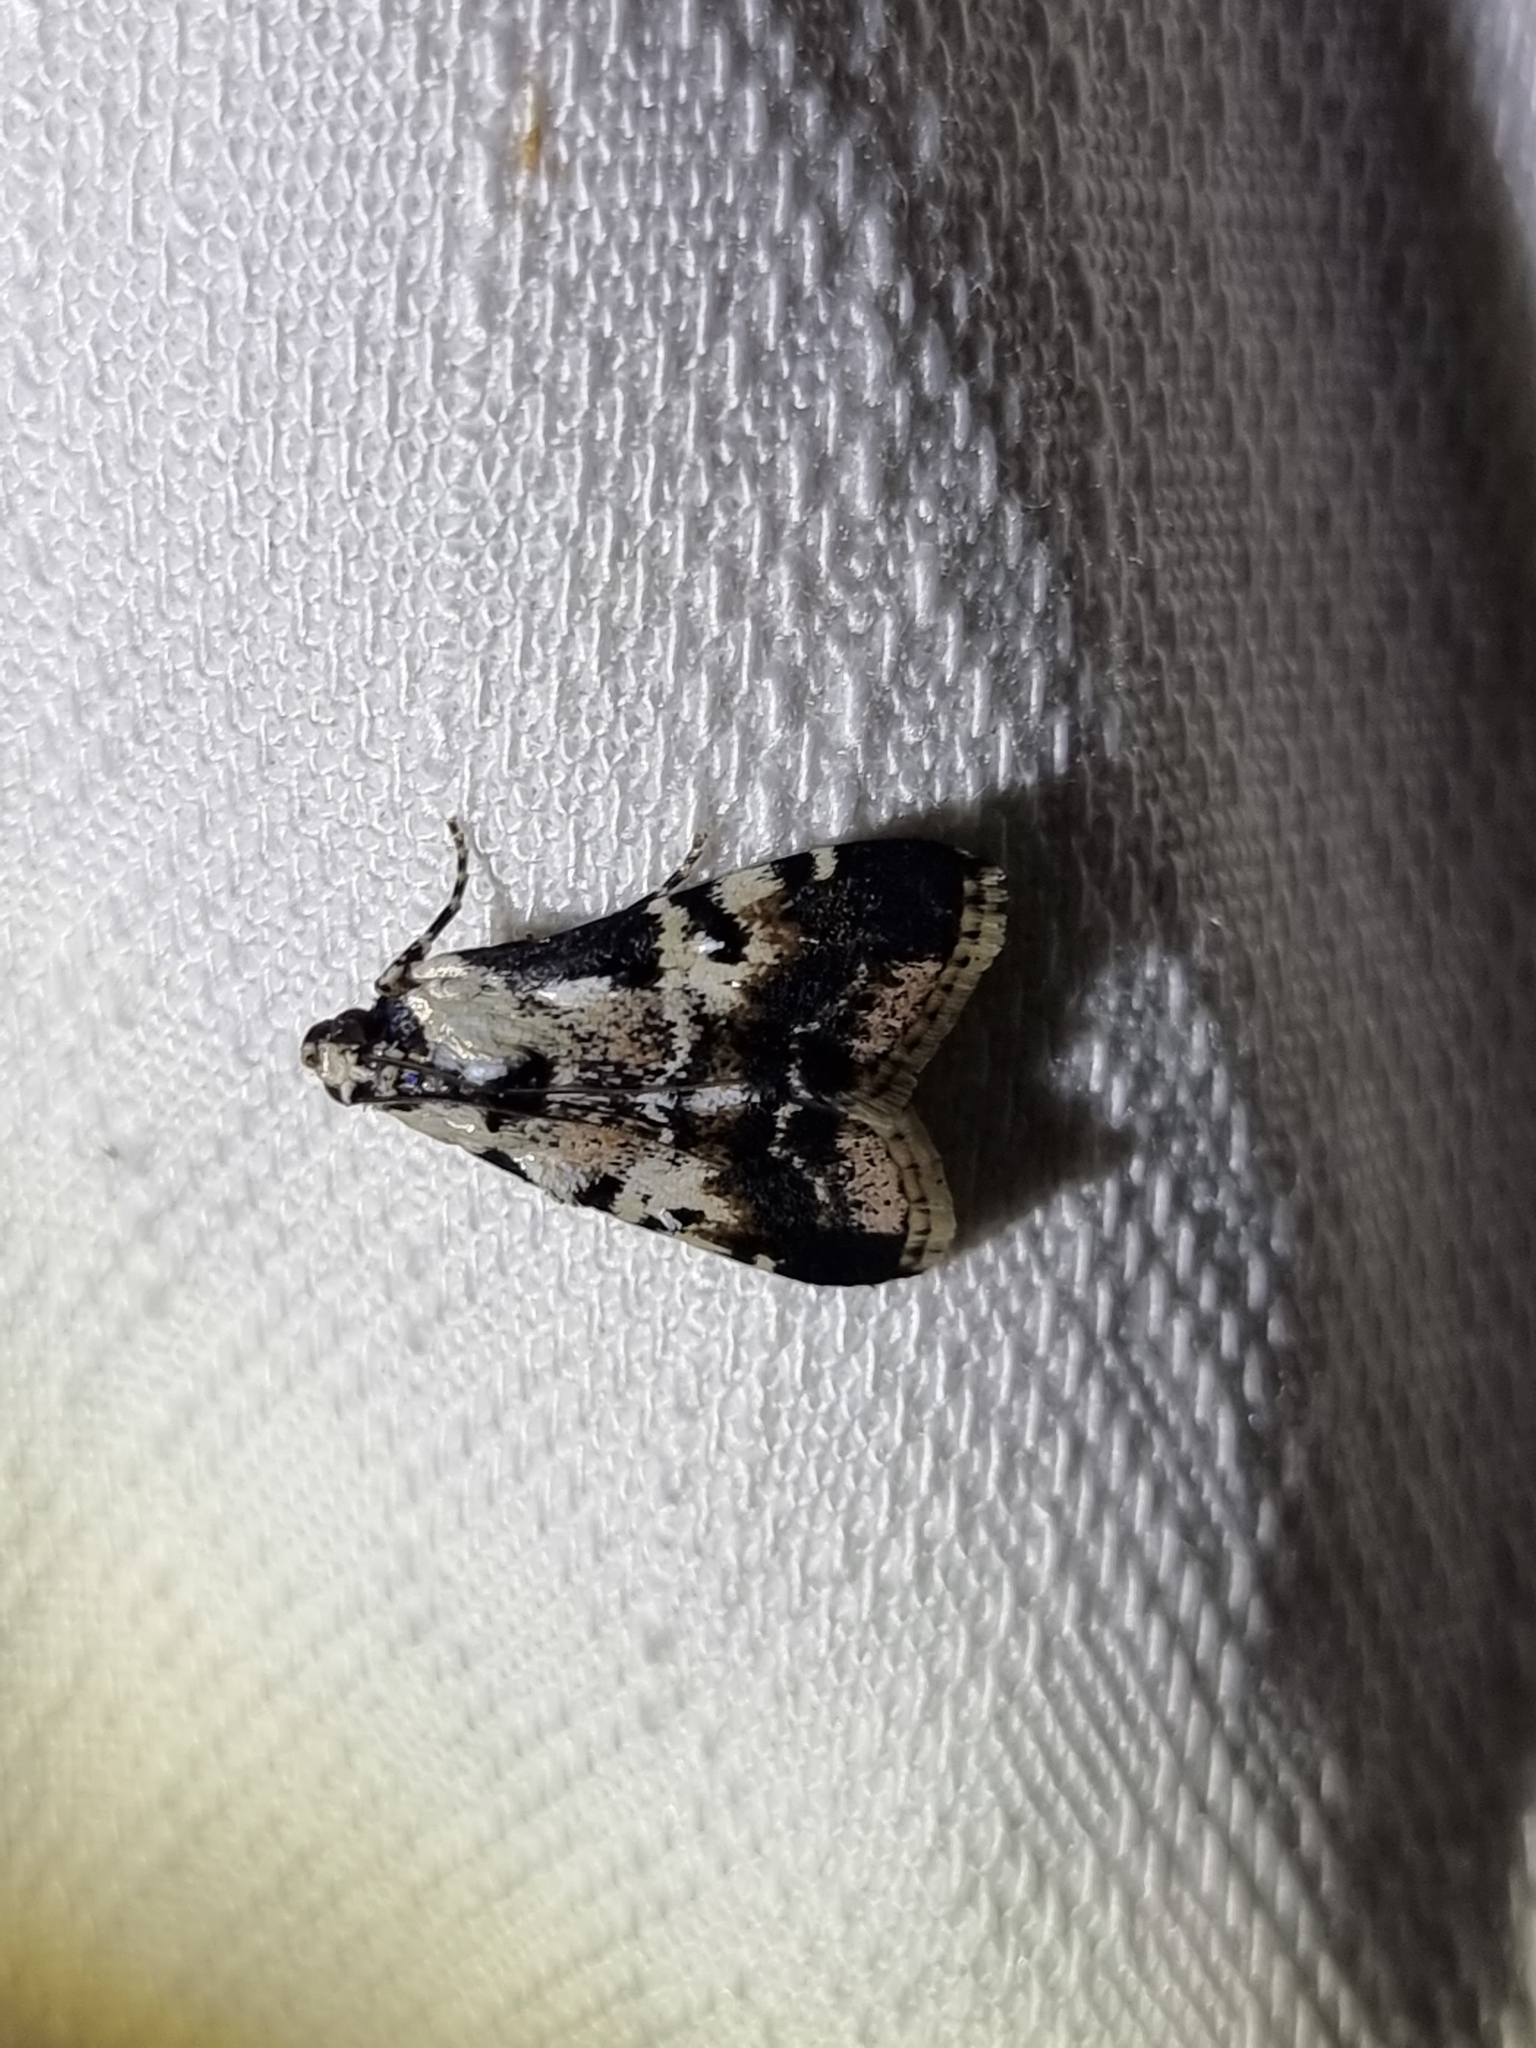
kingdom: Animalia
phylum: Arthropoda
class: Insecta
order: Lepidoptera
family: Pyralidae
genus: Orthaga
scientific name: Orthaga seminivea
